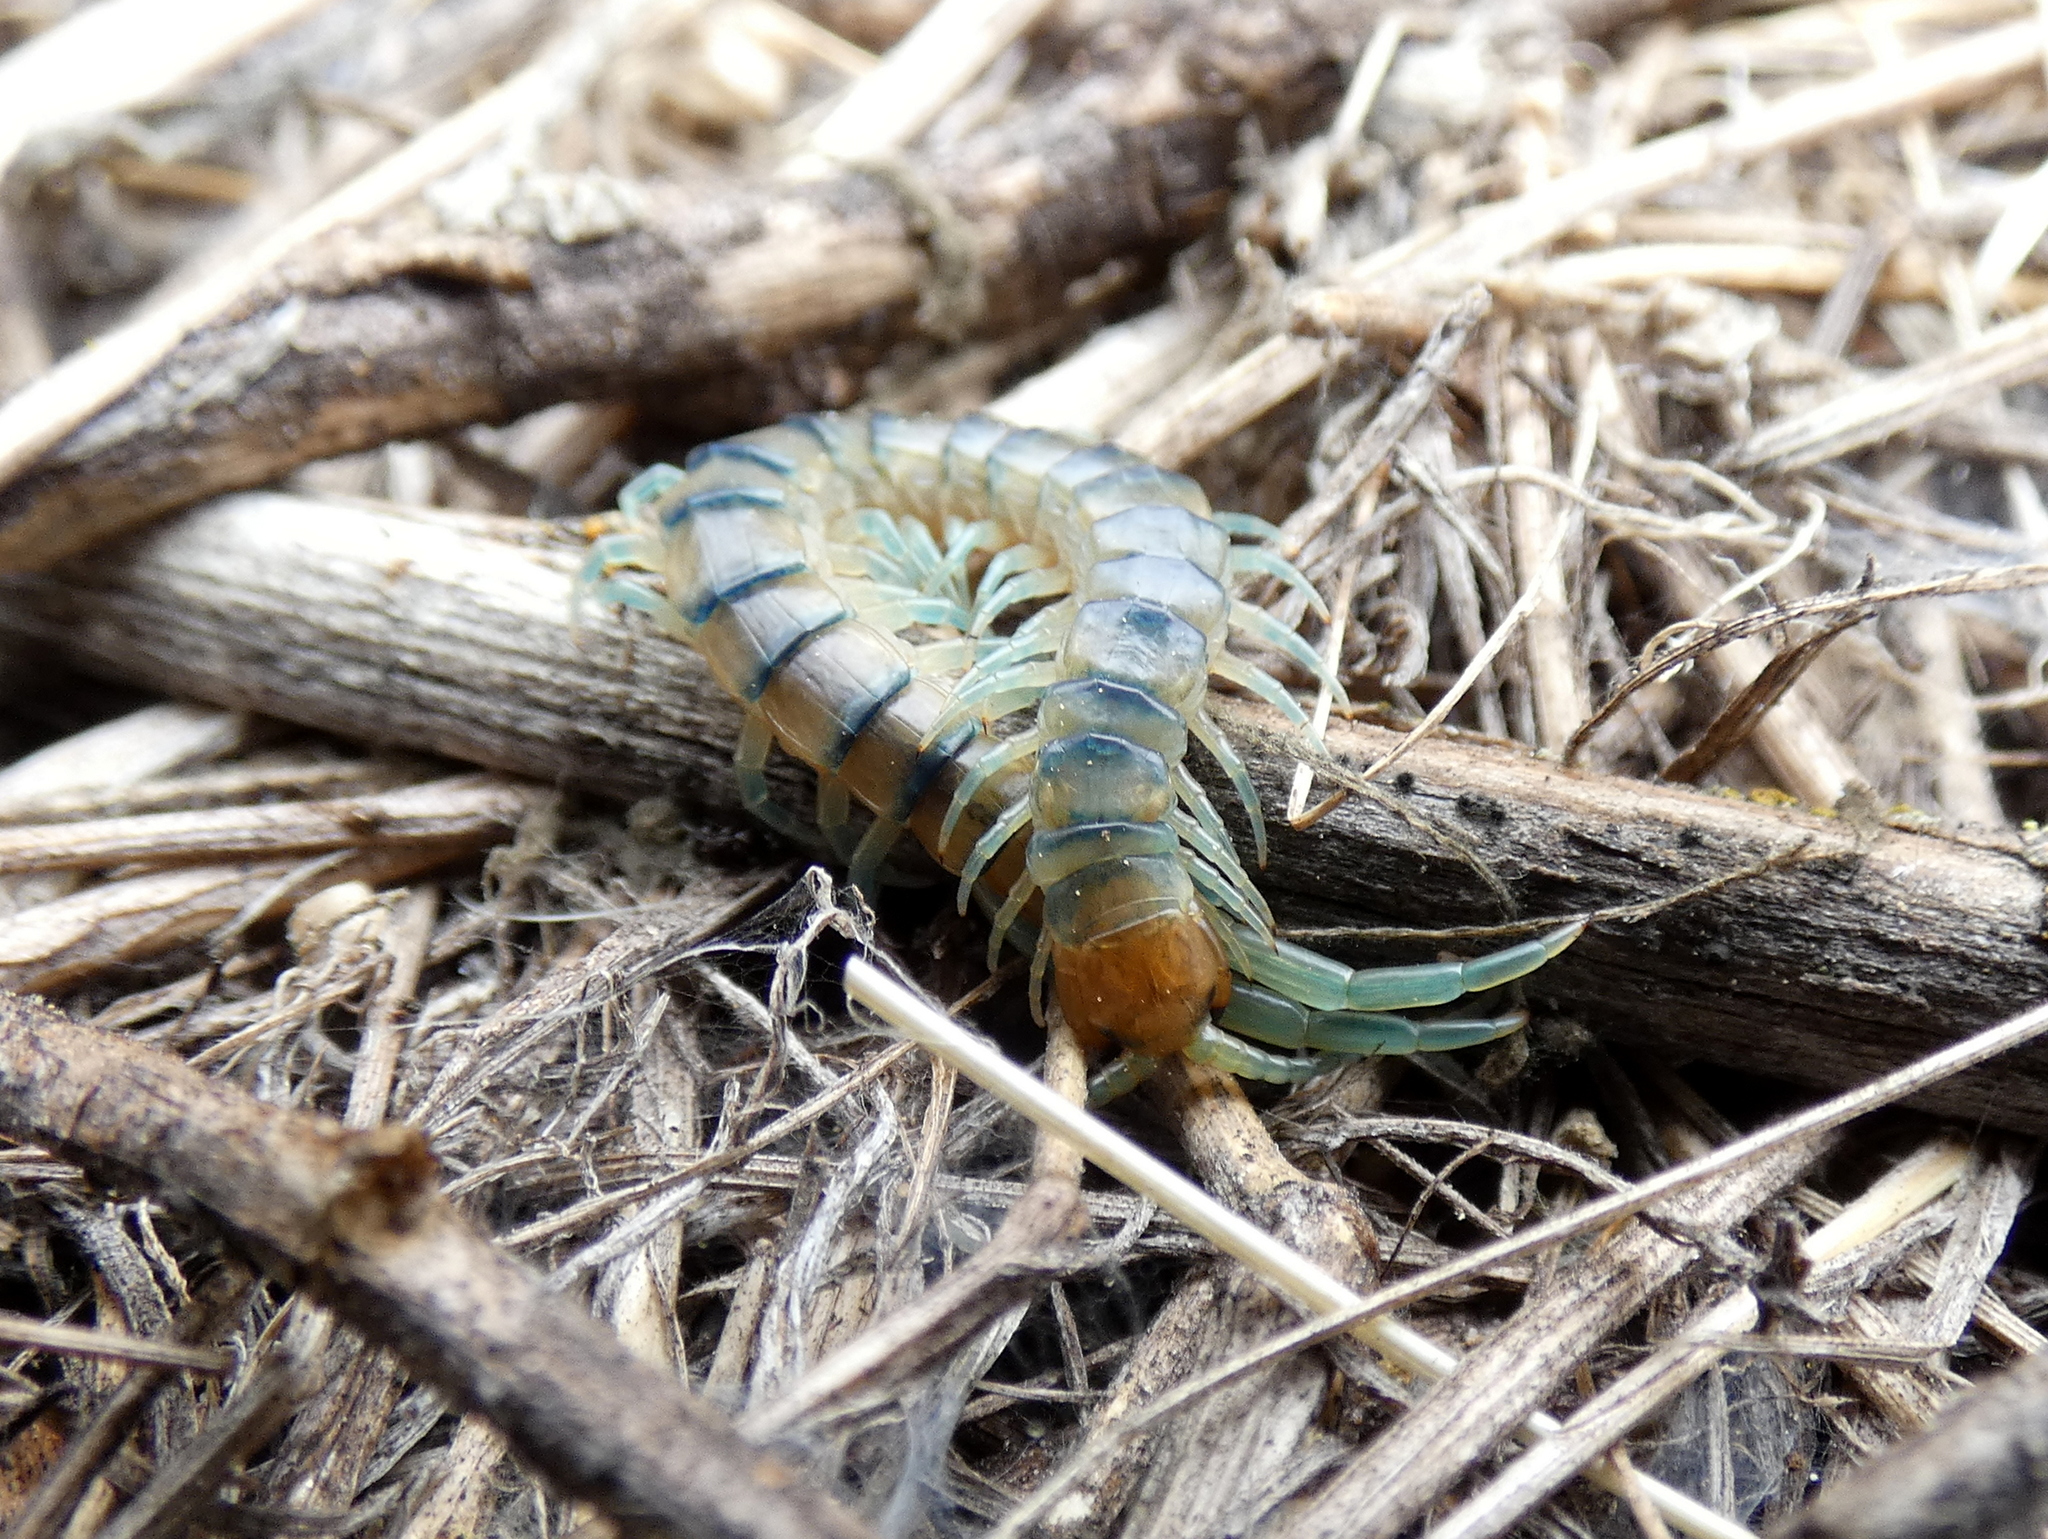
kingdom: Animalia
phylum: Arthropoda
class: Chilopoda
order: Scolopendromorpha
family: Scolopendridae
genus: Scolopendra
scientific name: Scolopendra polymorpha
